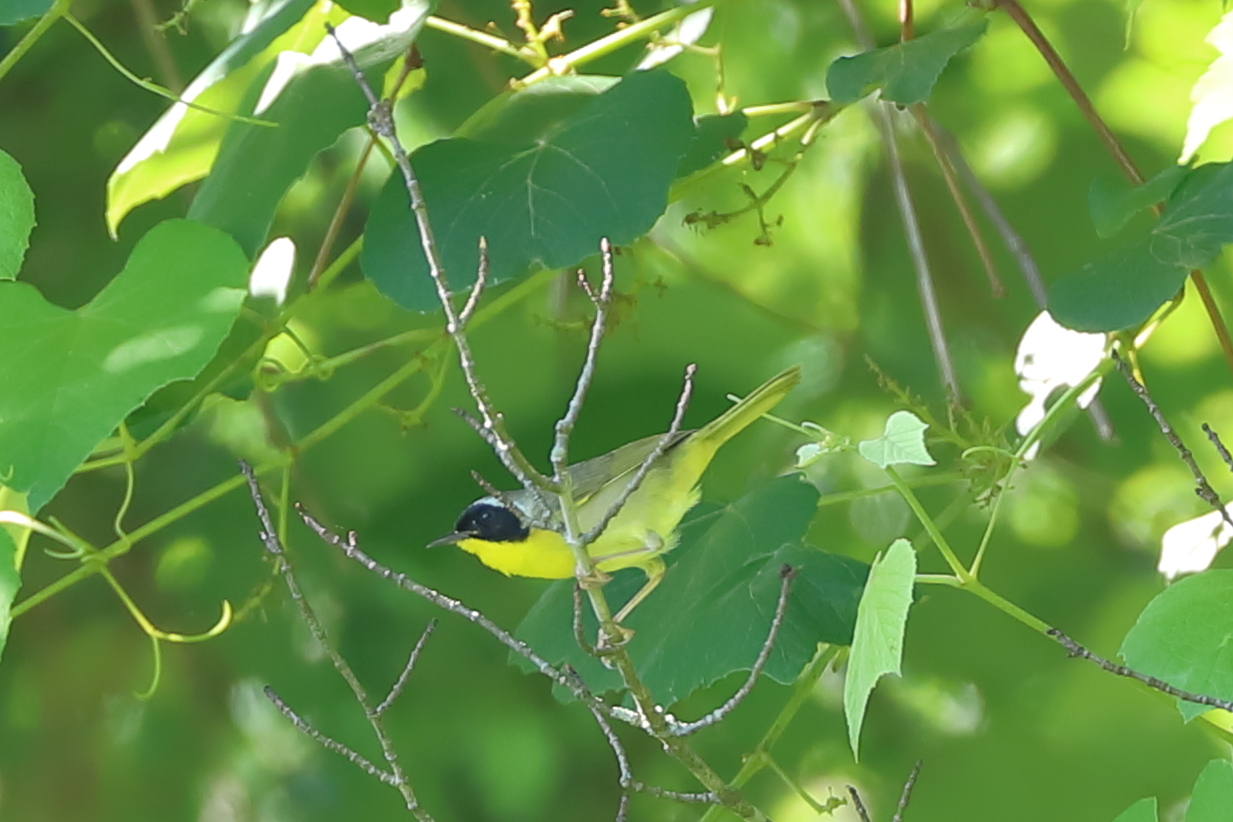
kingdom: Animalia
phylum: Chordata
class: Aves
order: Passeriformes
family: Parulidae
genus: Geothlypis
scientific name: Geothlypis trichas
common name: Common yellowthroat
